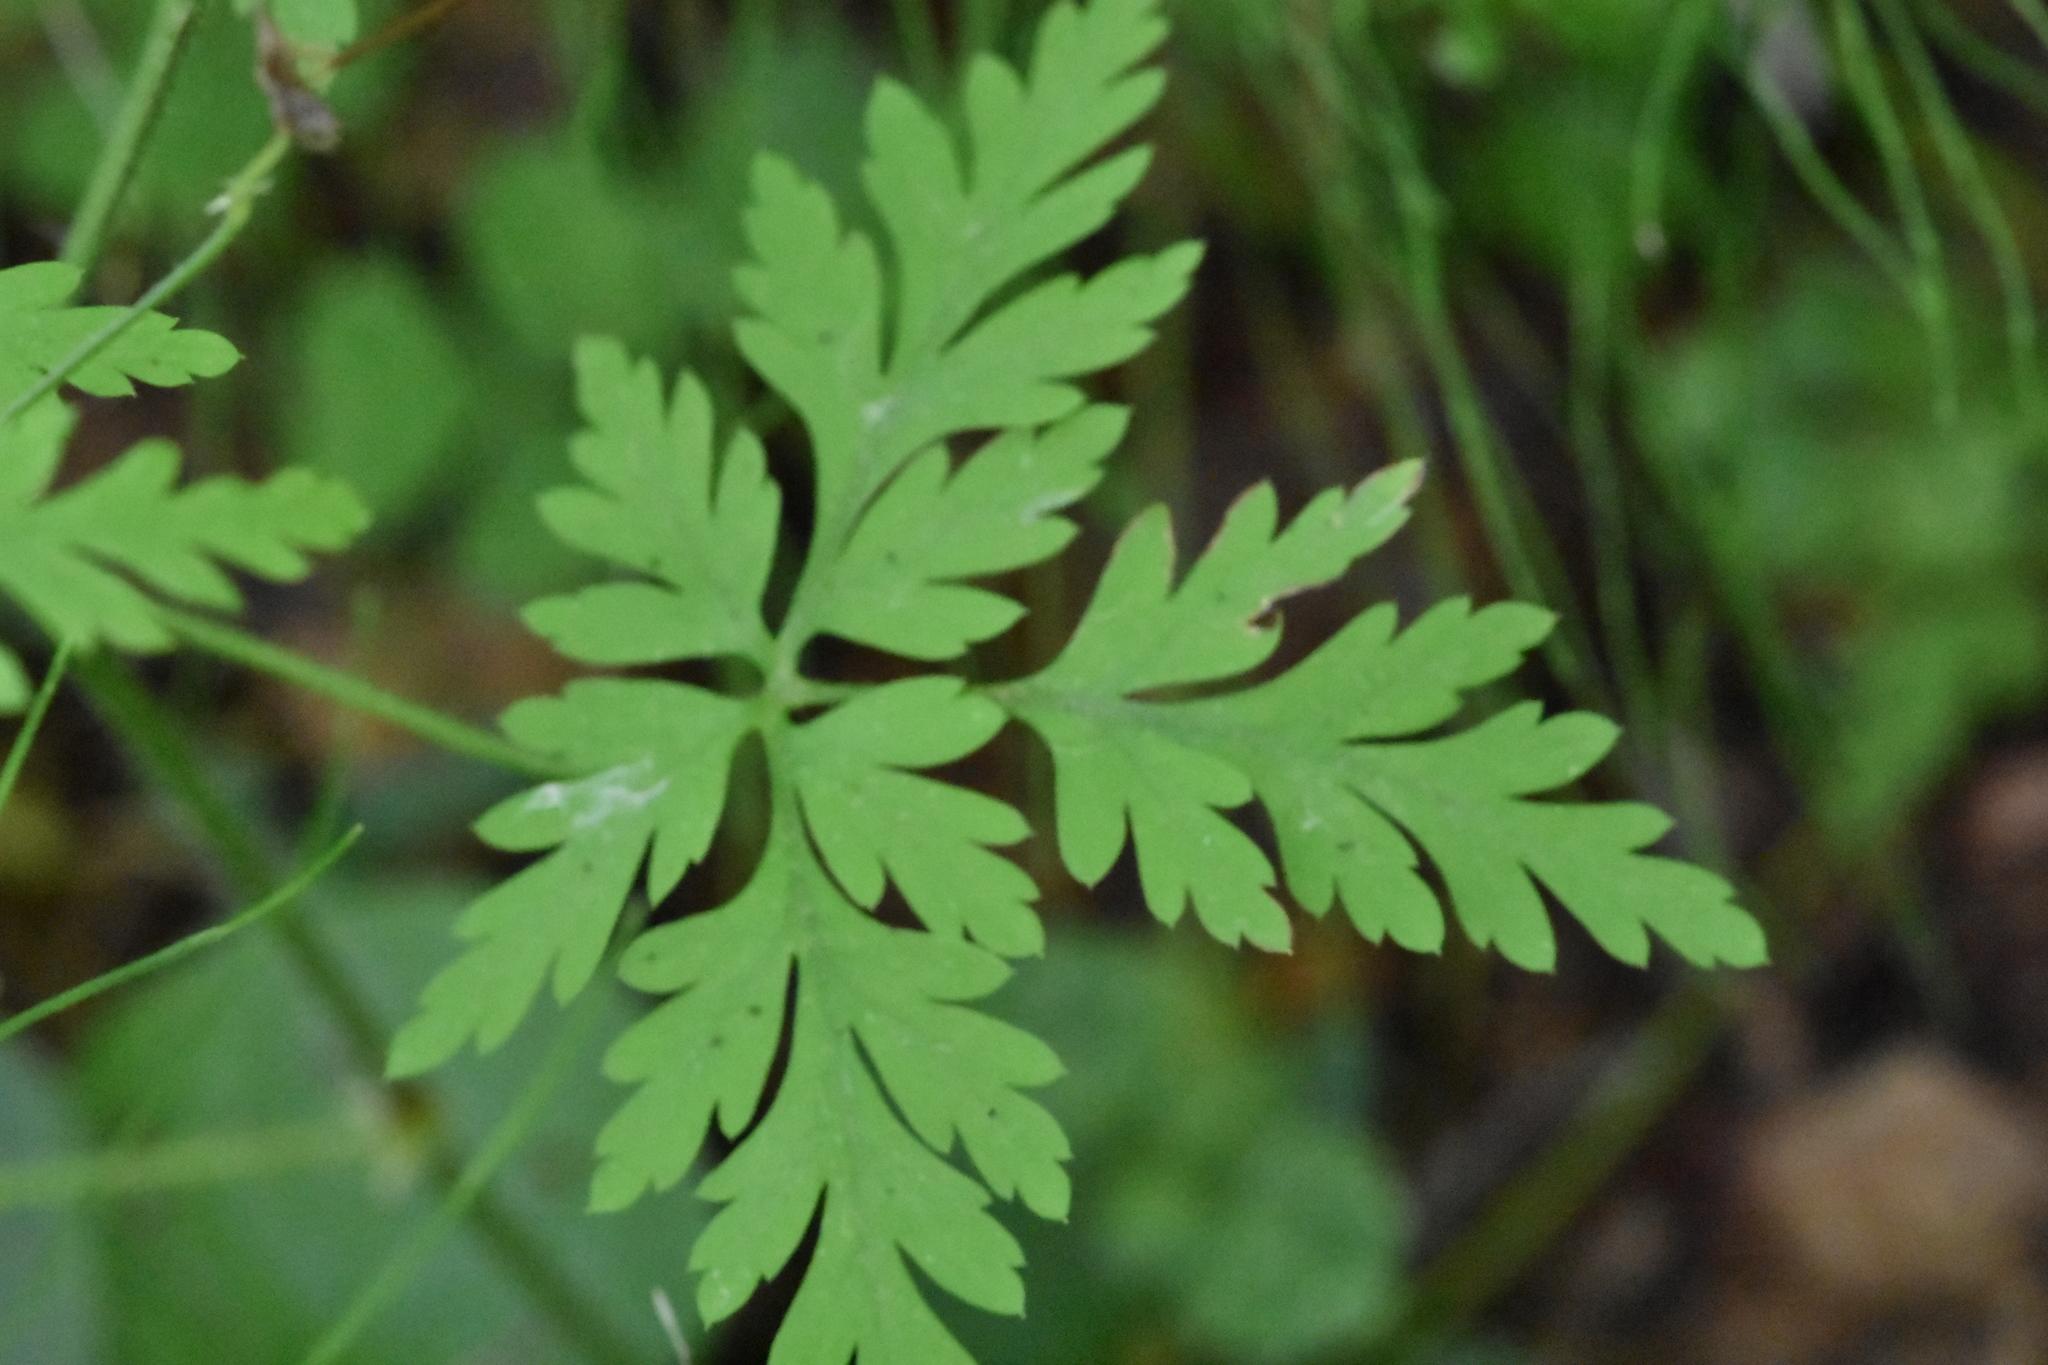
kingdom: Plantae
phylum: Tracheophyta
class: Magnoliopsida
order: Geraniales
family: Geraniaceae
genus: Geranium
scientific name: Geranium robertianum
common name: Herb-robert
